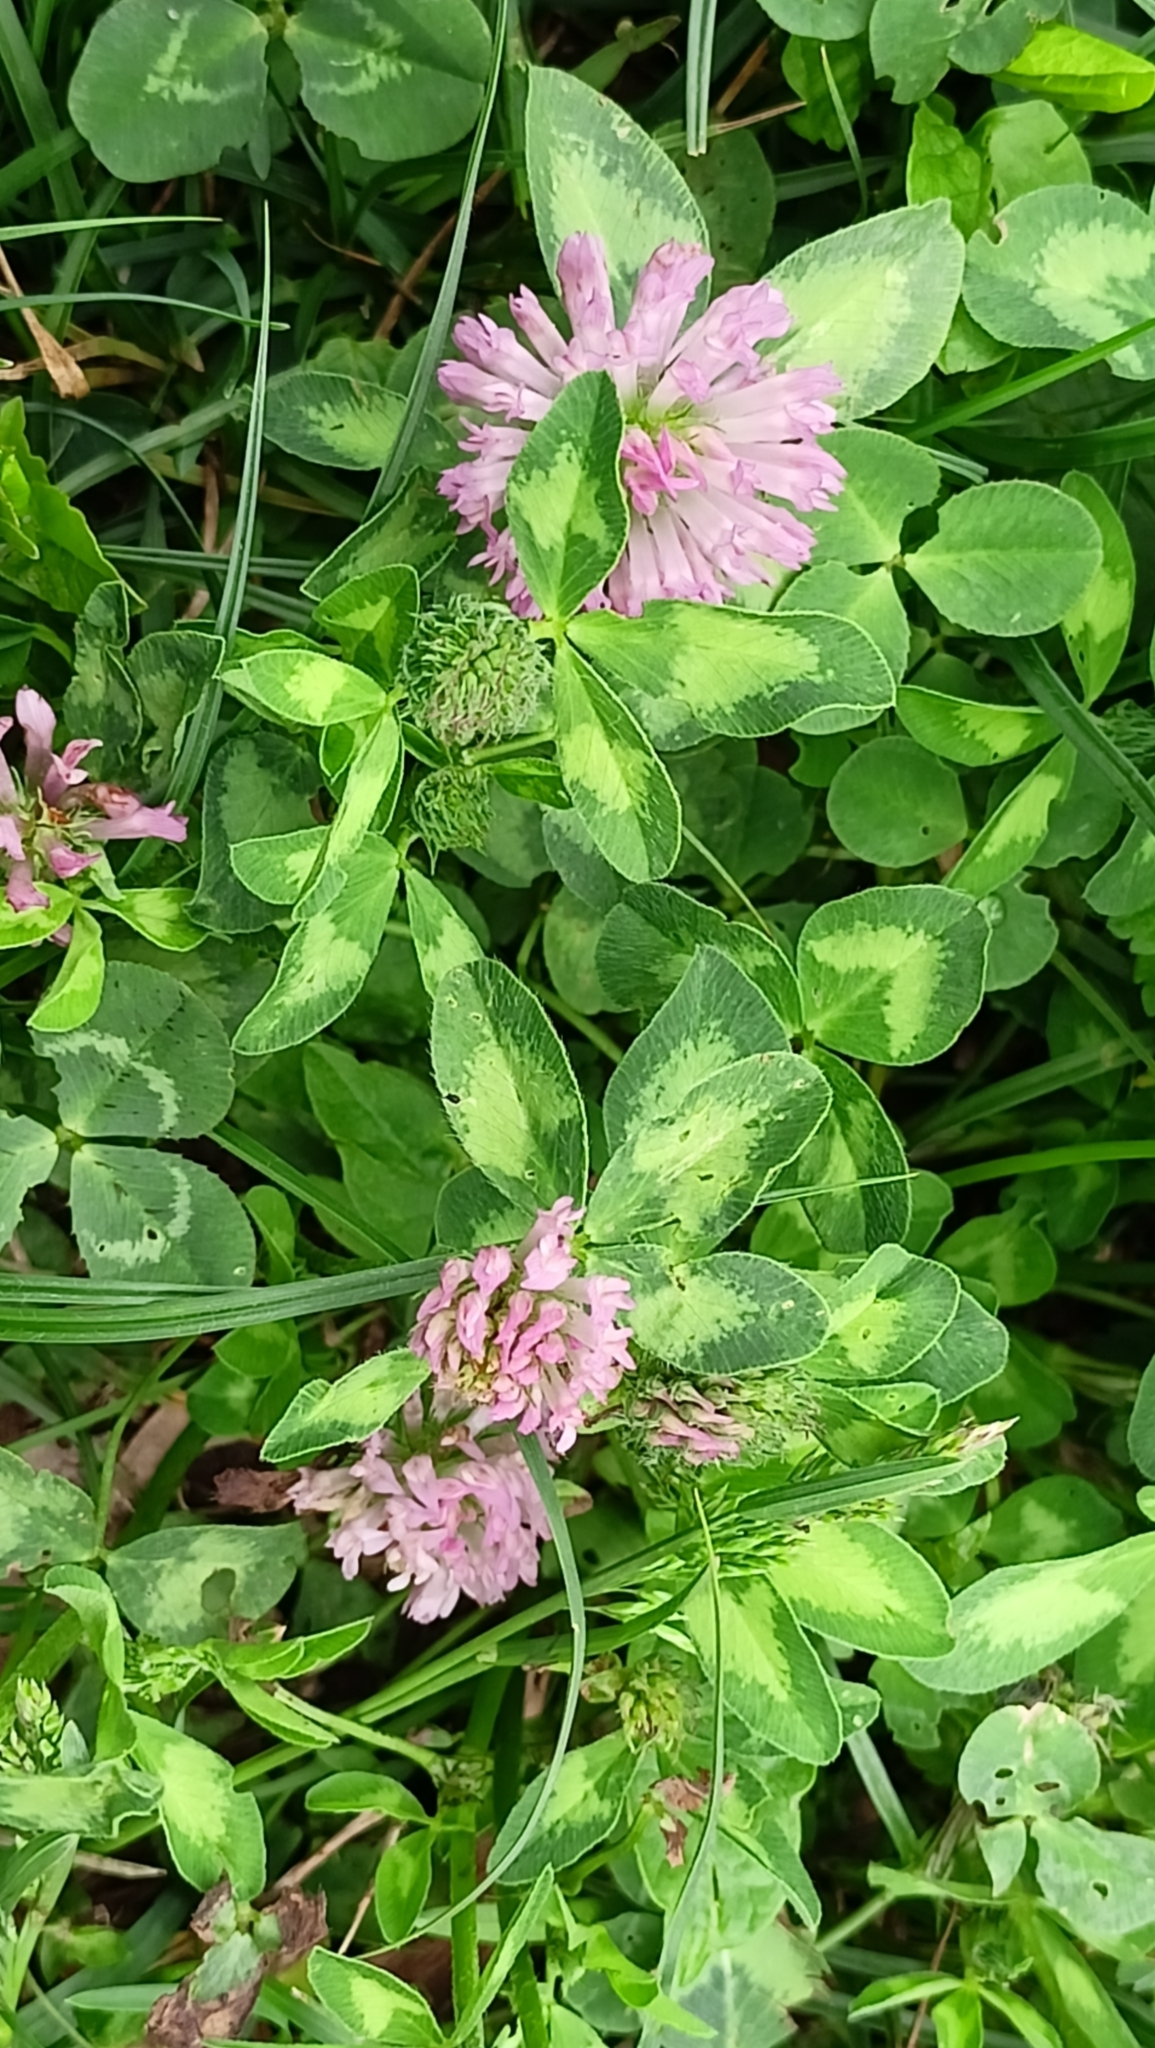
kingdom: Plantae
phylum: Tracheophyta
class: Magnoliopsida
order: Fabales
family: Fabaceae
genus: Trifolium
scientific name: Trifolium pratense
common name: Red clover
